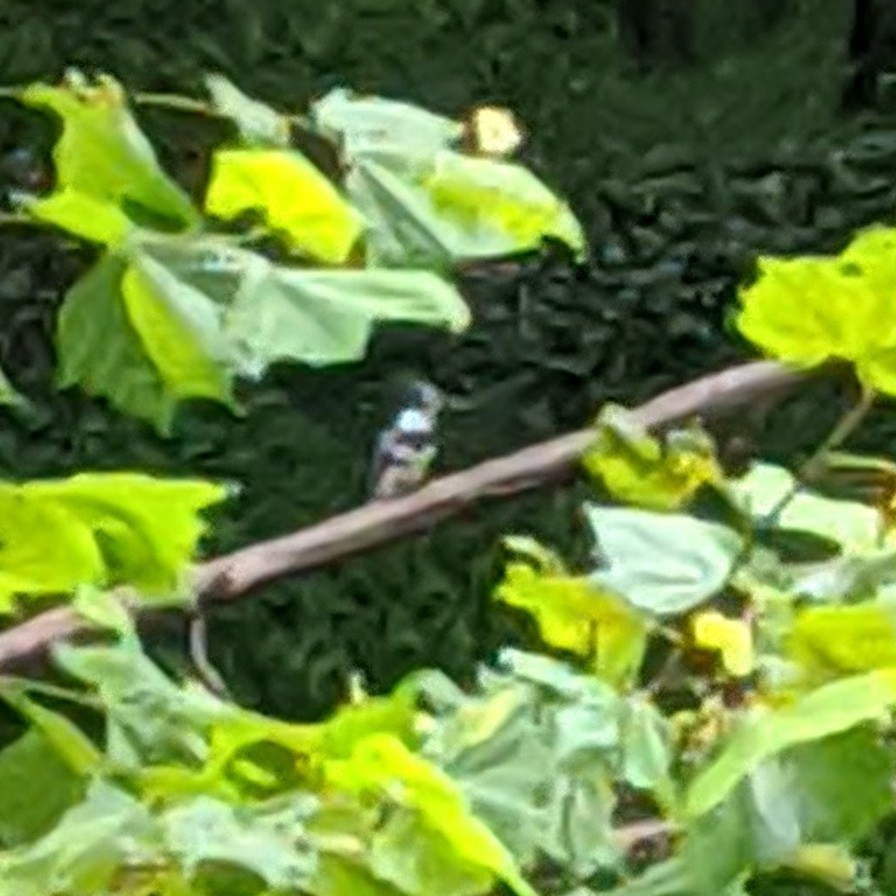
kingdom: Animalia
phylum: Chordata
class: Aves
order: Coraciiformes
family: Alcedinidae
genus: Megaceryle
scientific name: Megaceryle alcyon
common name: Belted kingfisher
